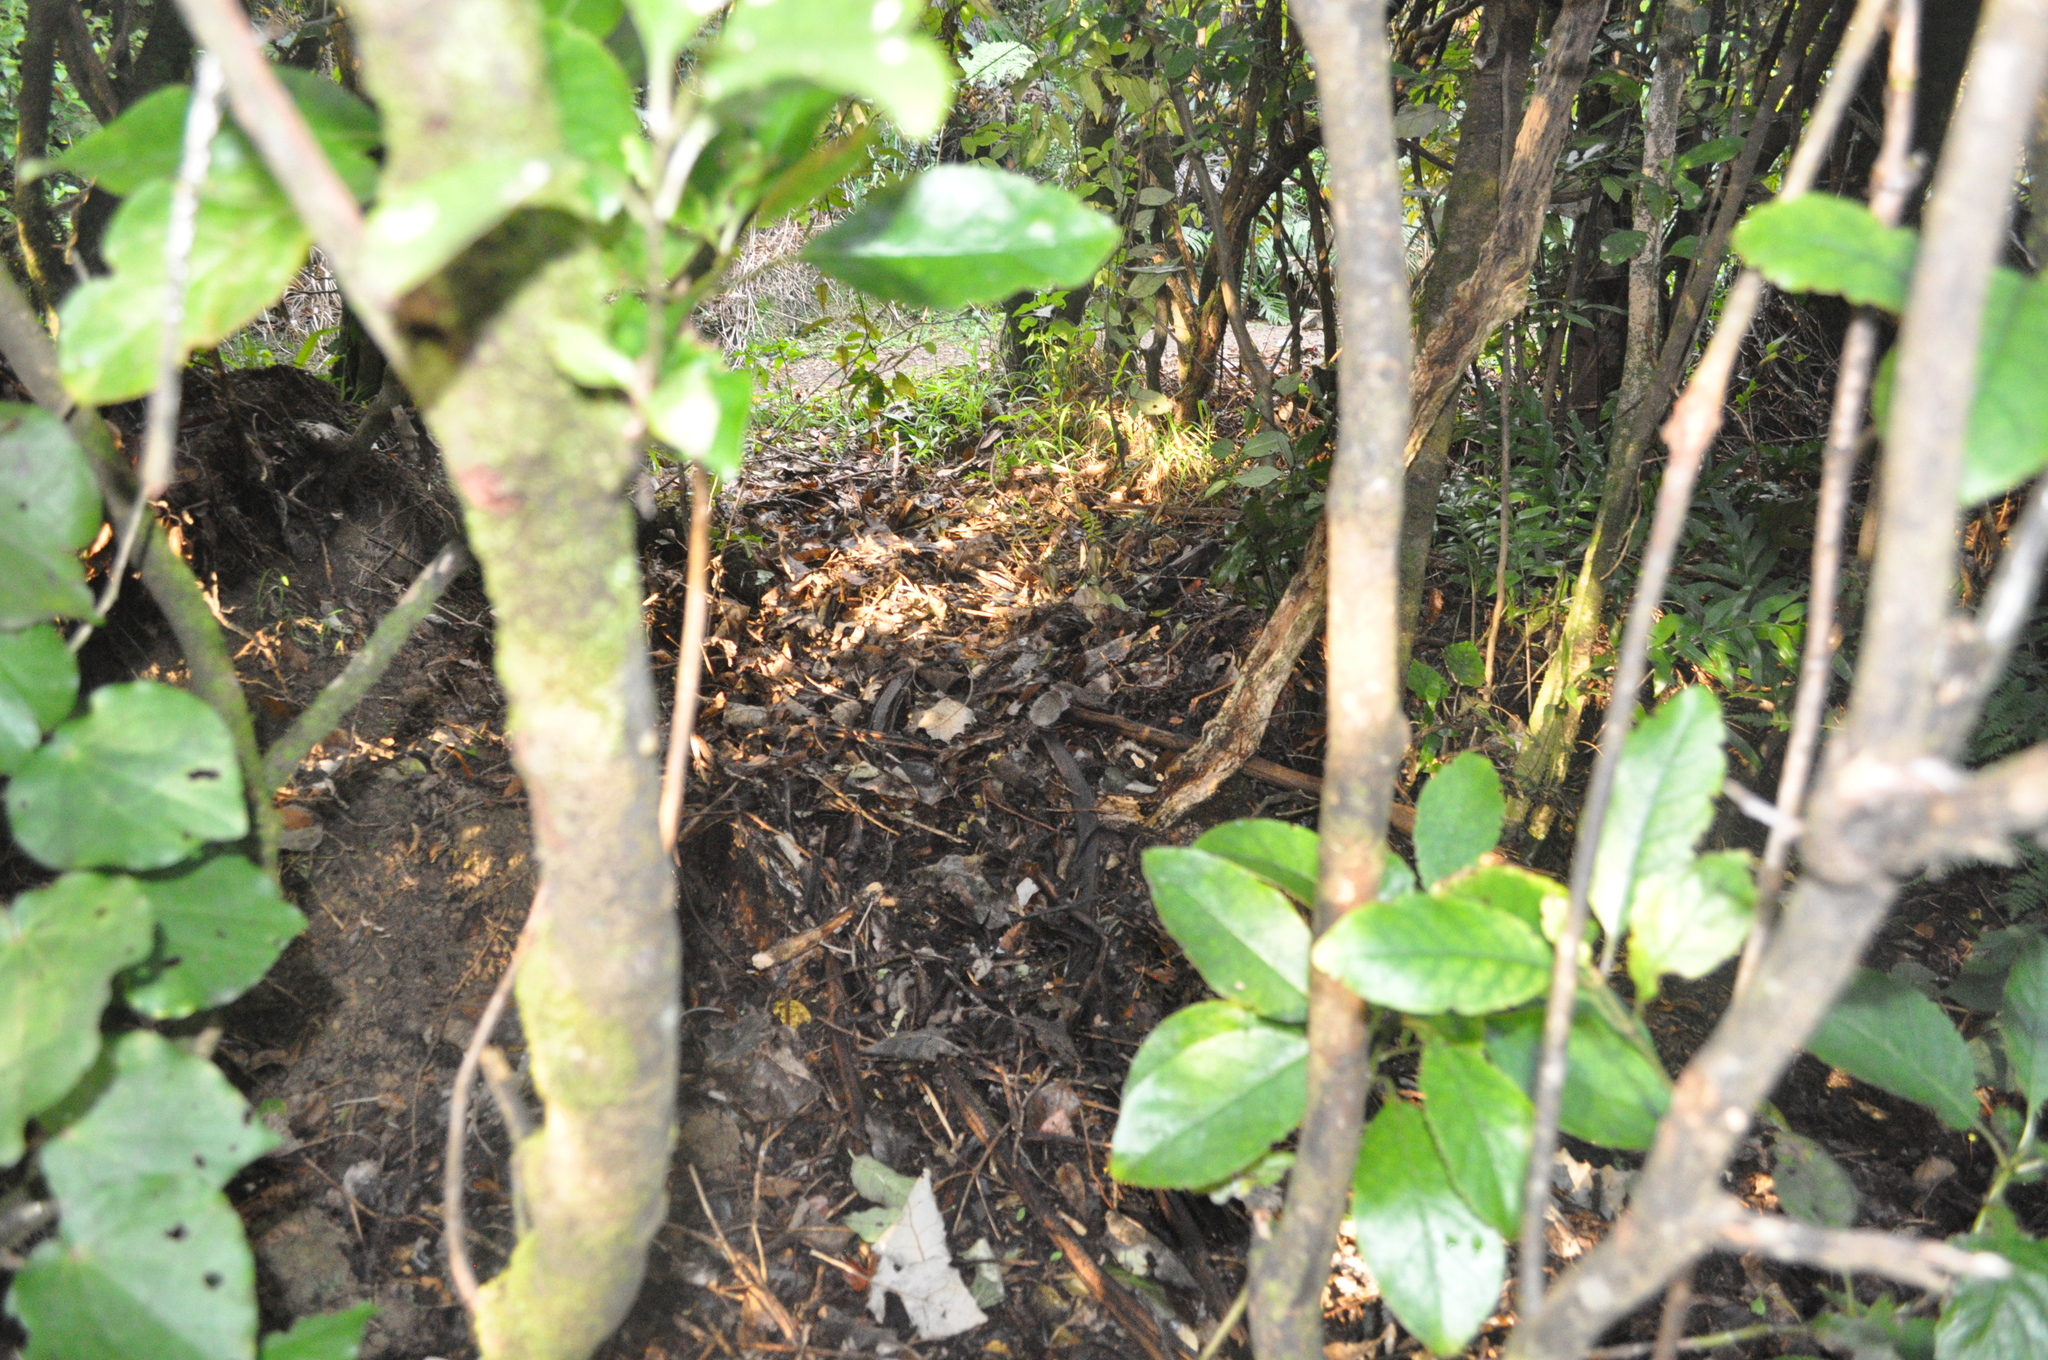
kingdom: Animalia
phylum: Chordata
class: Mammalia
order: Rodentia
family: Muridae
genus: Mus
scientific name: Mus musculus
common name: House mouse
